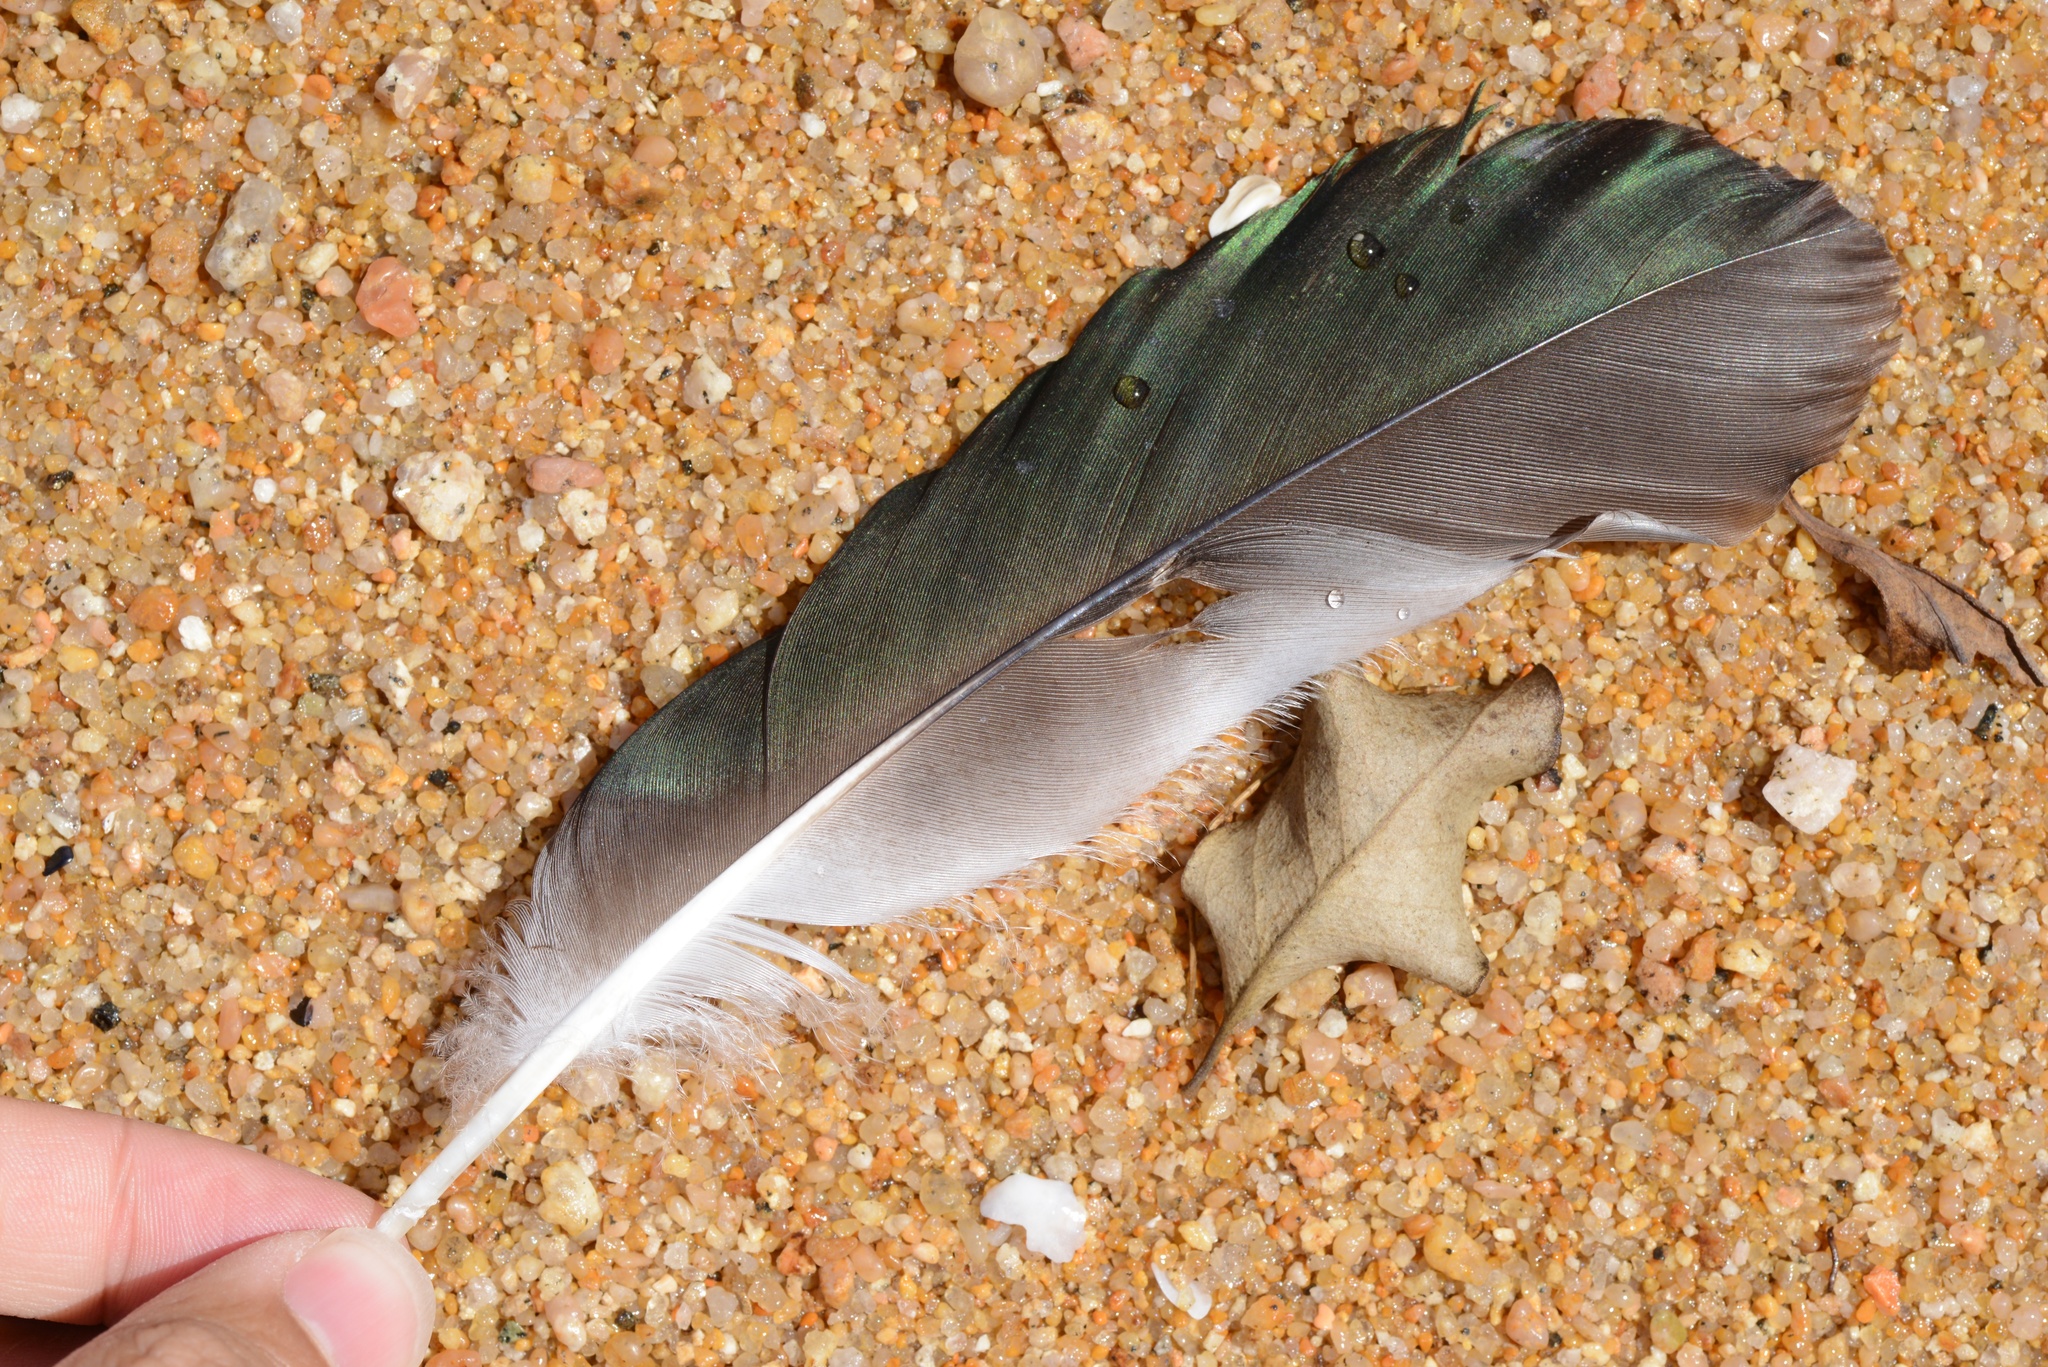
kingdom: Animalia
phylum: Chordata
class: Aves
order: Anseriformes
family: Anatidae
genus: Tadorna
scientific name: Tadorna variegata
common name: Paradise shelduck
